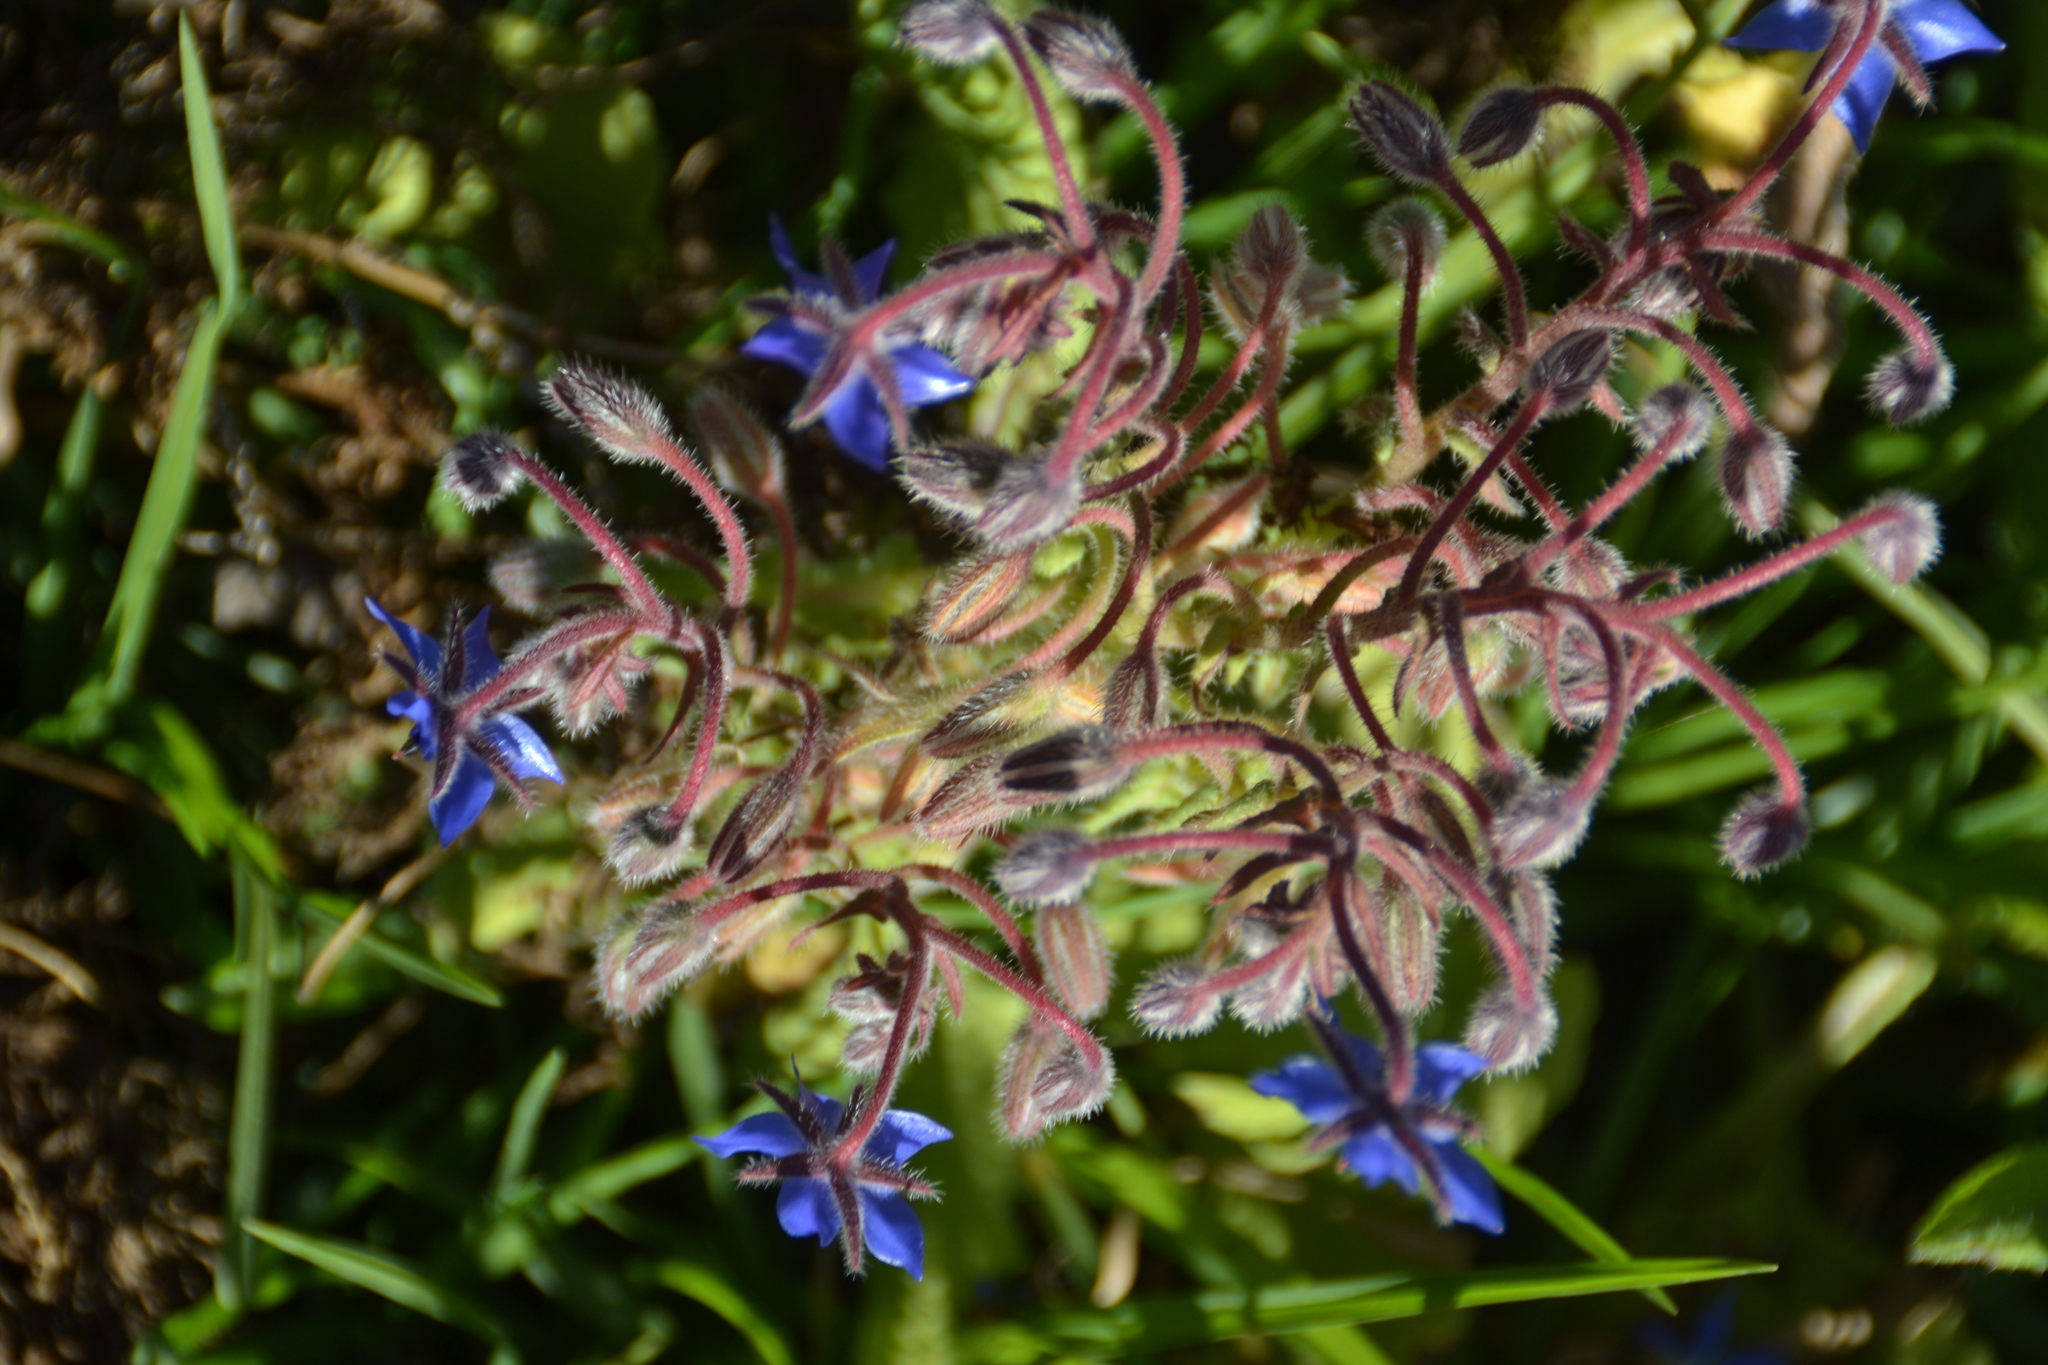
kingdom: Plantae
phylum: Tracheophyta
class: Magnoliopsida
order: Boraginales
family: Boraginaceae
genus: Borago
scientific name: Borago officinalis
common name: Borage
